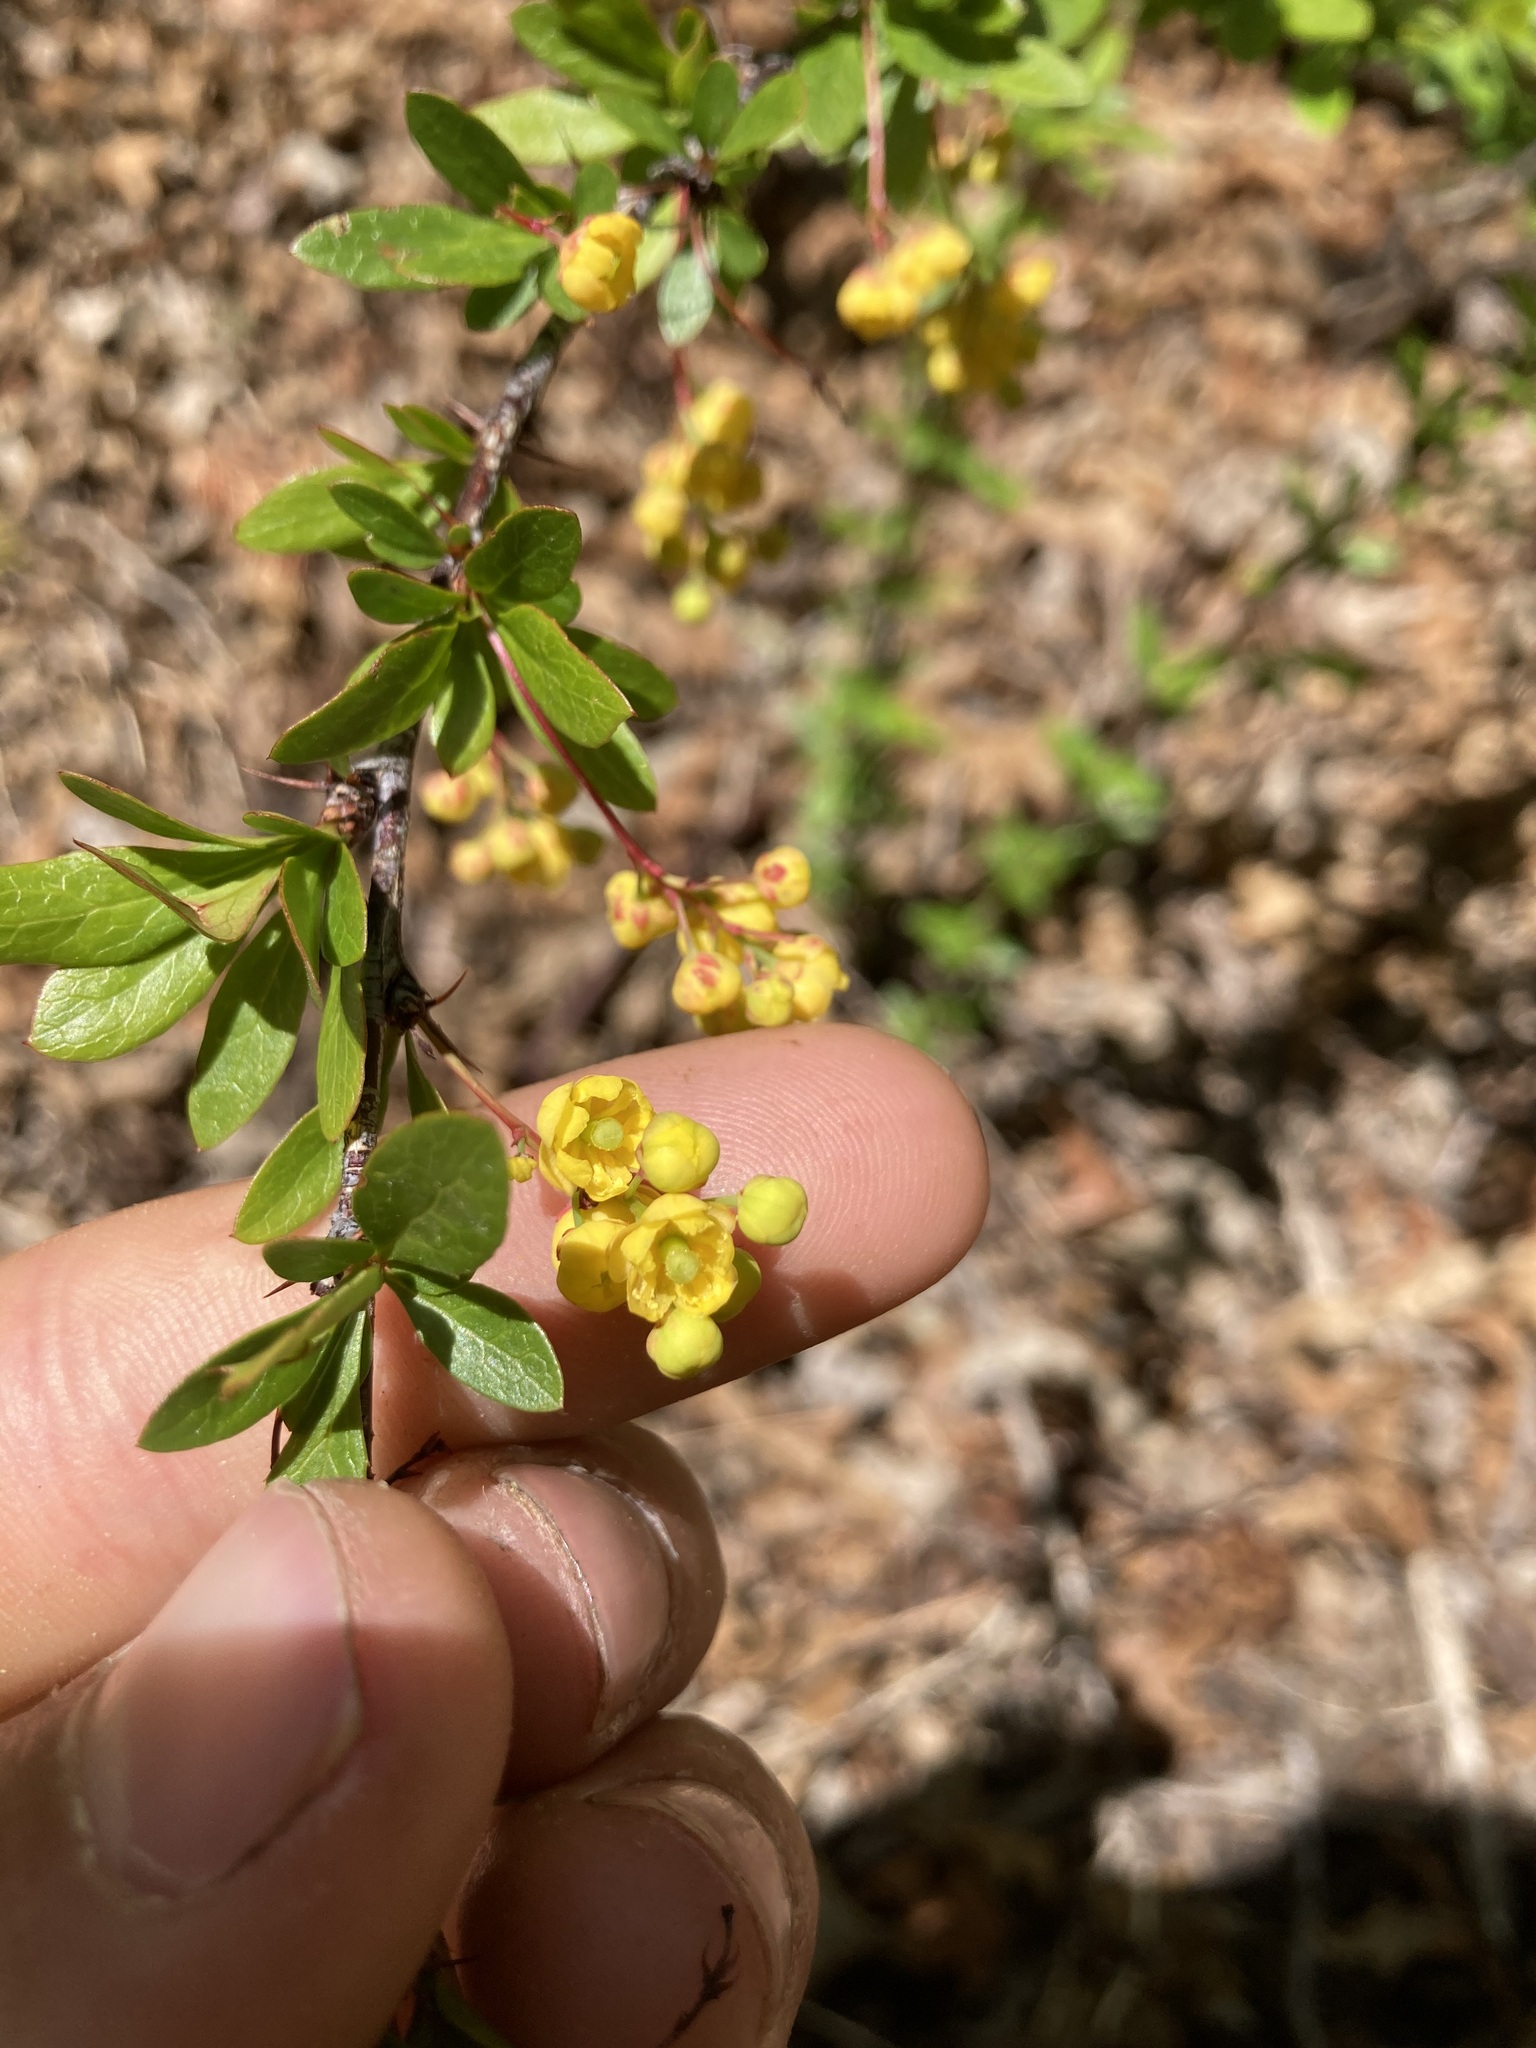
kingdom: Plantae
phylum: Tracheophyta
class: Magnoliopsida
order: Ranunculales
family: Berberidaceae
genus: Berberis
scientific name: Berberis fendleri
